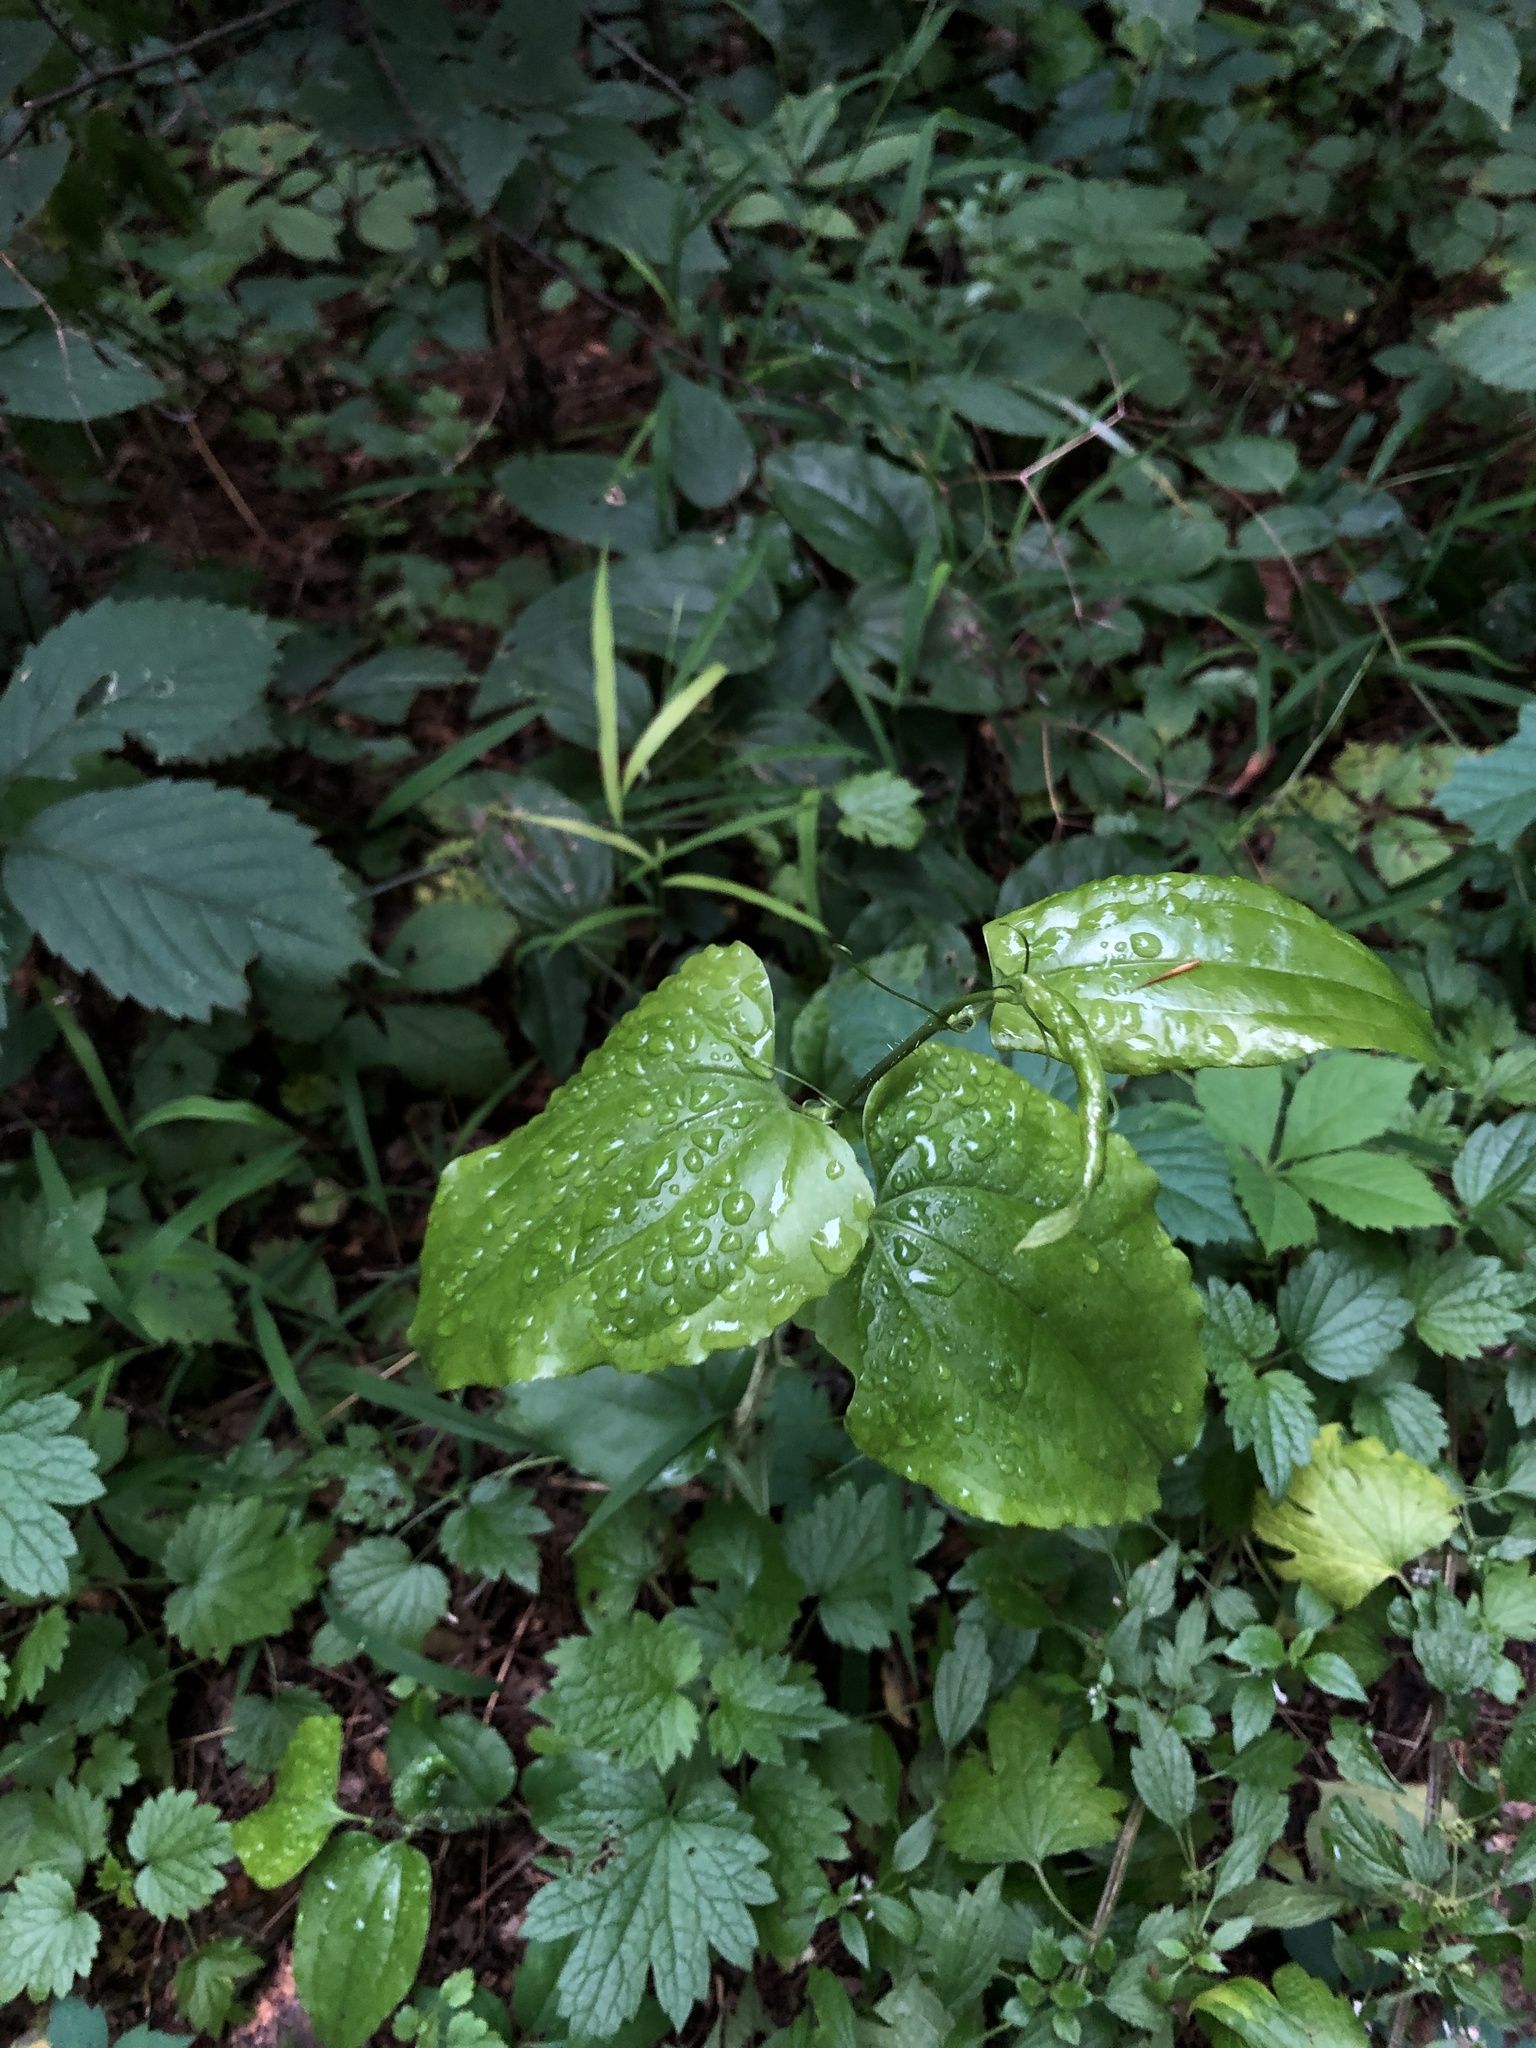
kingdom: Plantae
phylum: Tracheophyta
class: Liliopsida
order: Liliales
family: Smilacaceae
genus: Smilax
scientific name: Smilax tamnoides
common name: Hellfetter
